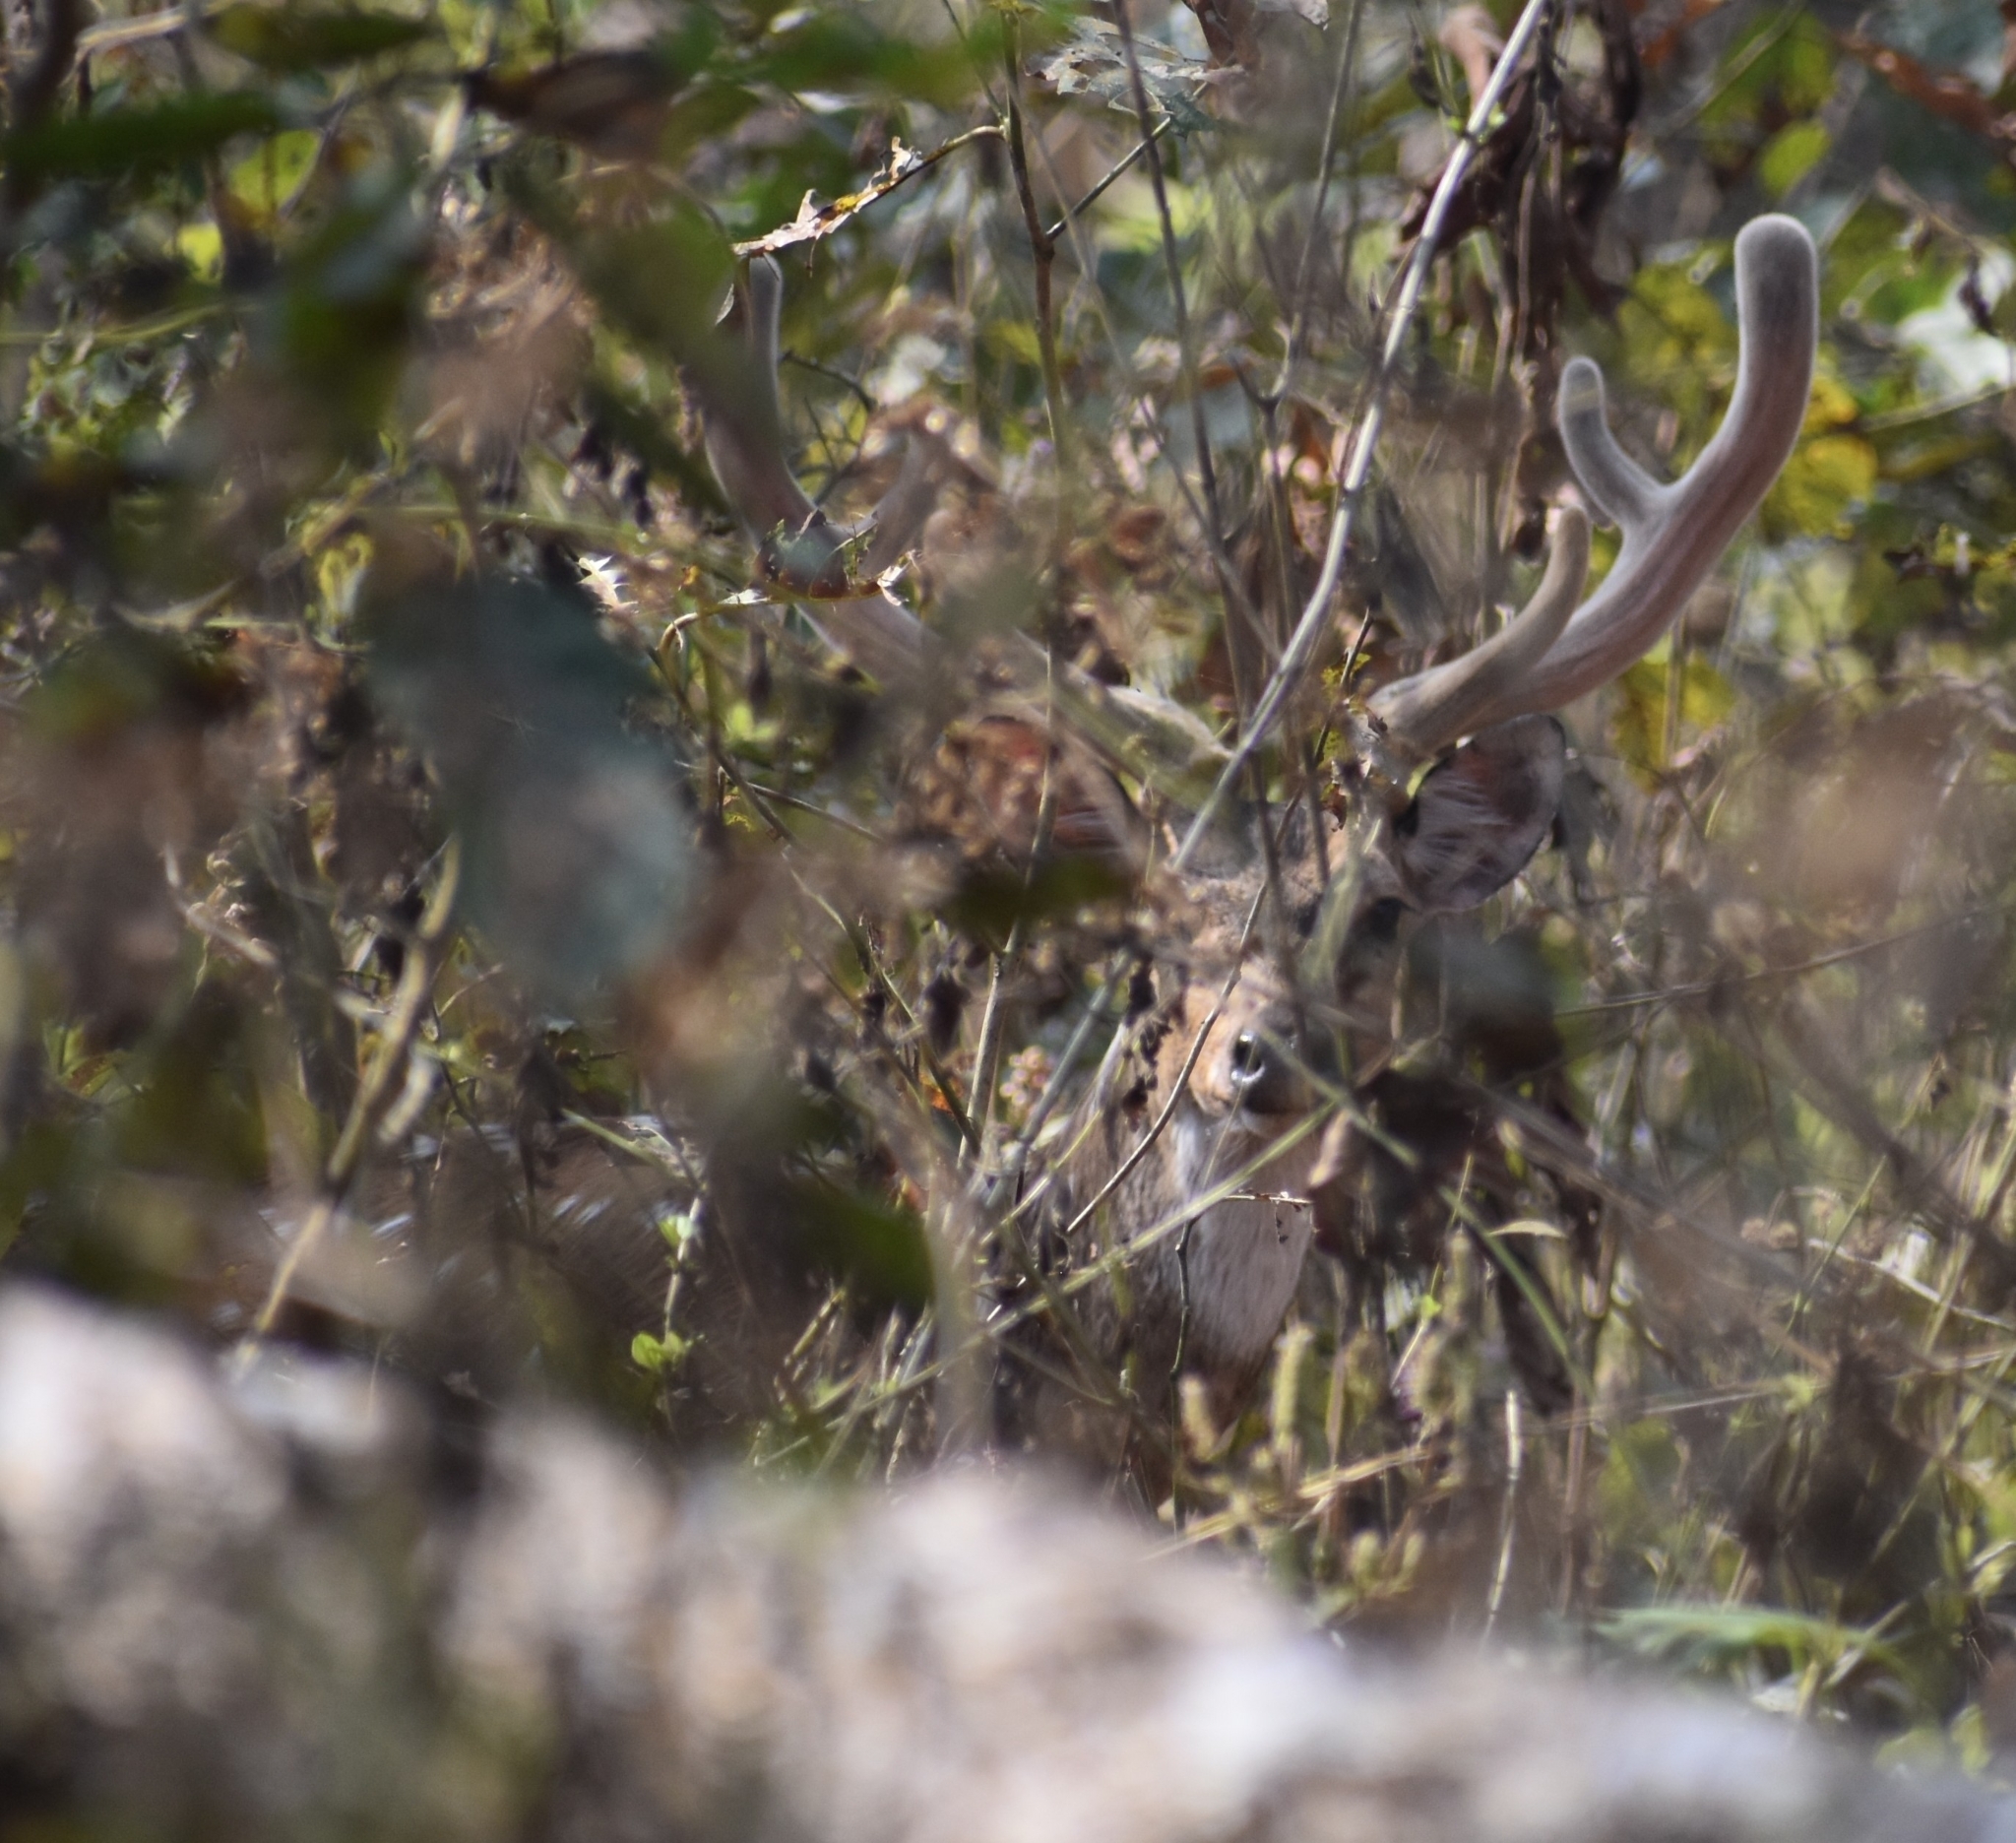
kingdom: Animalia
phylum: Chordata
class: Mammalia
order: Artiodactyla
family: Cervidae
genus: Axis
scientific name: Axis axis
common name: Chital
